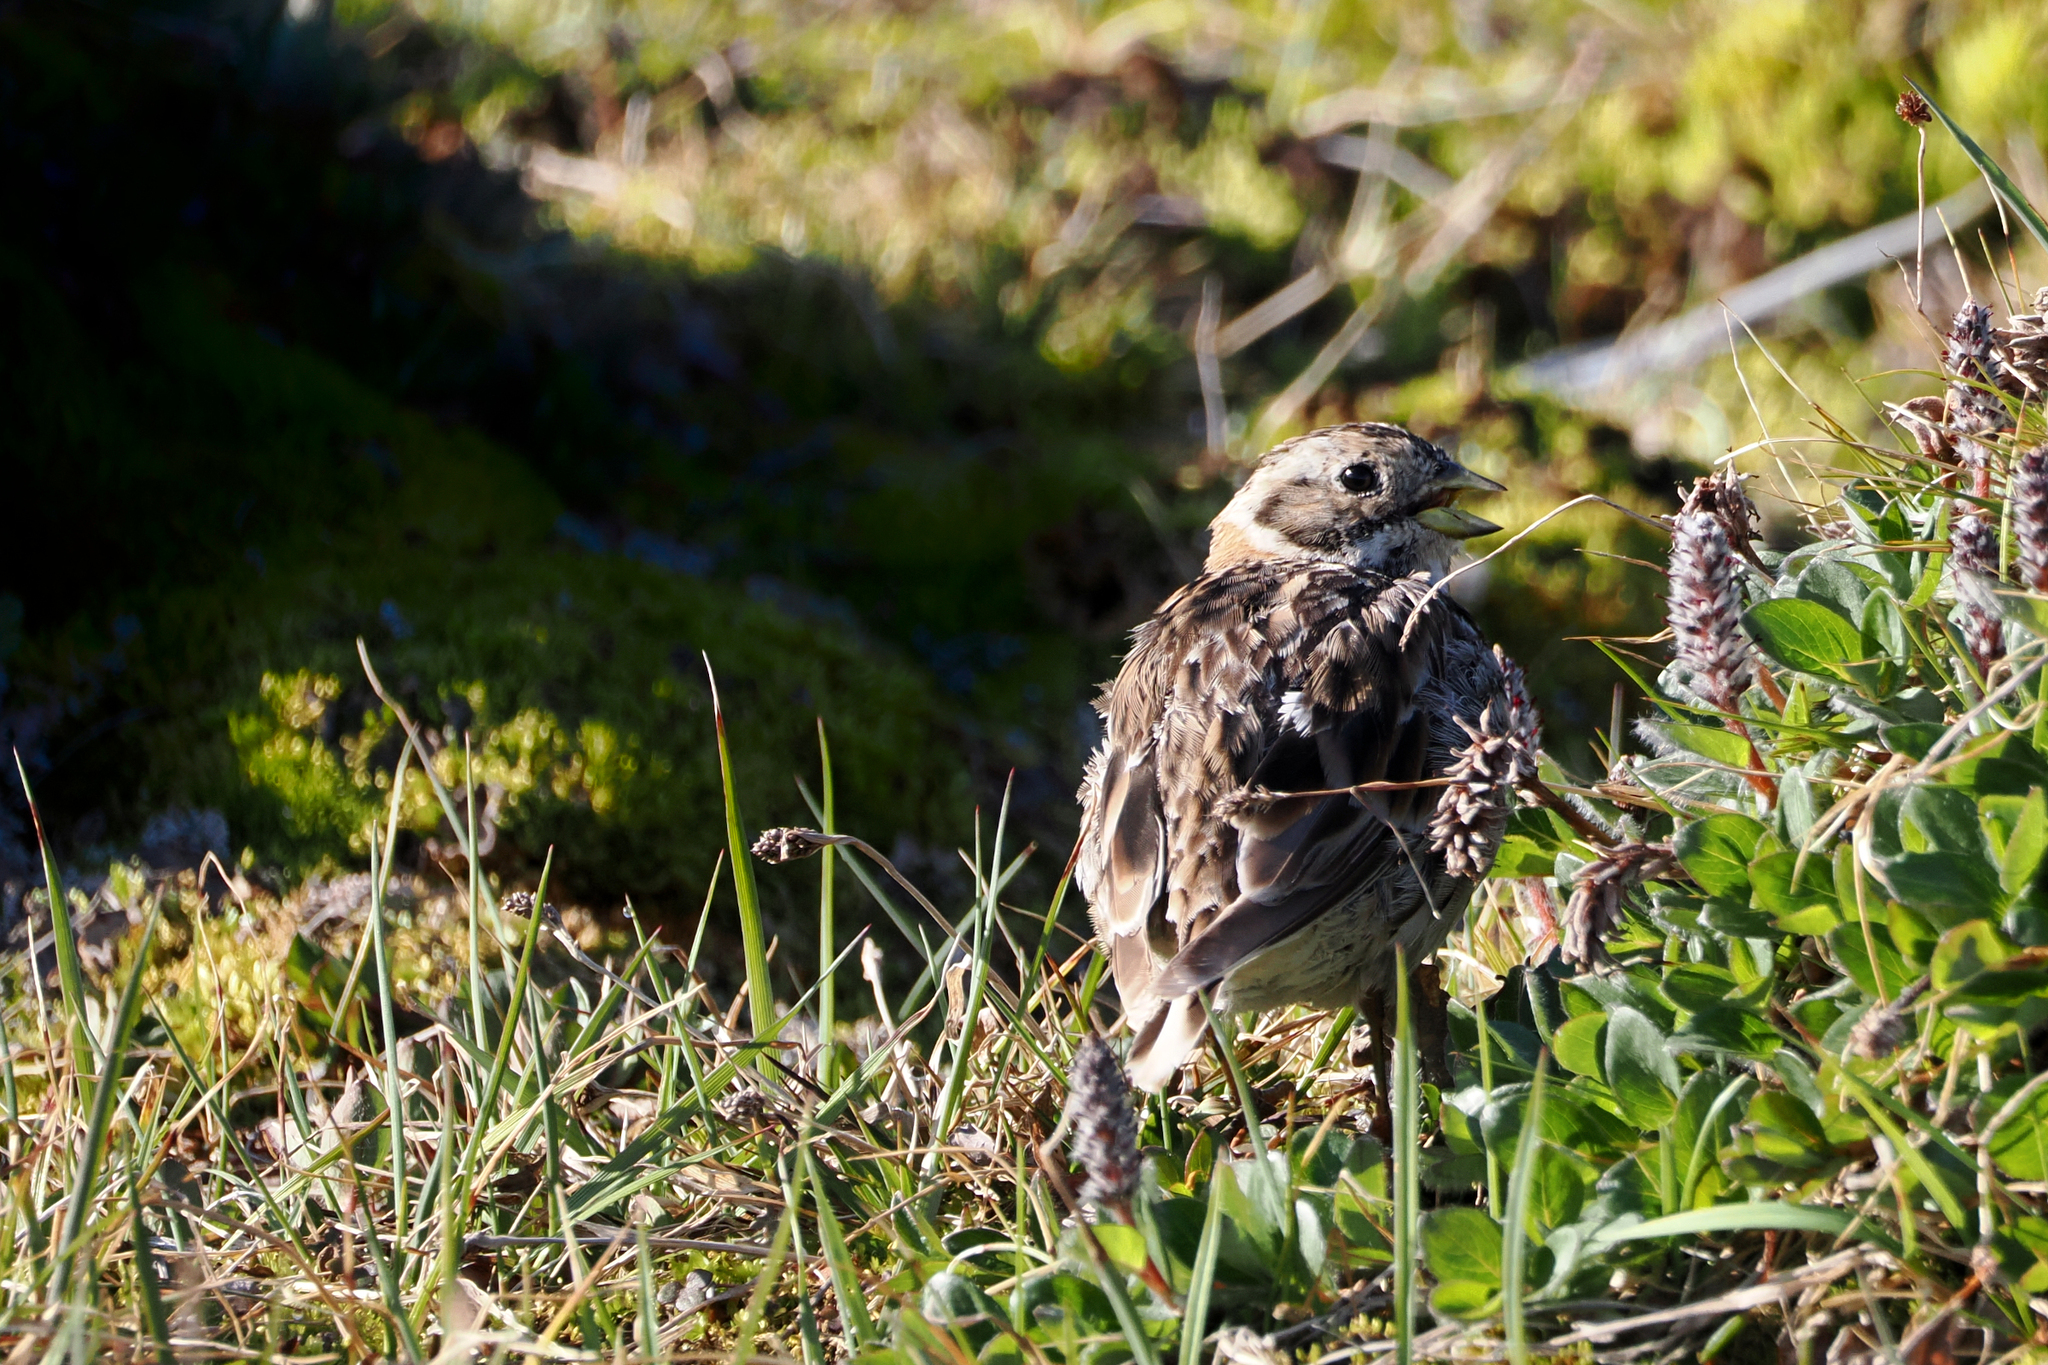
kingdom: Animalia
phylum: Chordata
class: Aves
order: Passeriformes
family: Calcariidae
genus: Calcarius
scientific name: Calcarius lapponicus
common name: Lapland longspur
